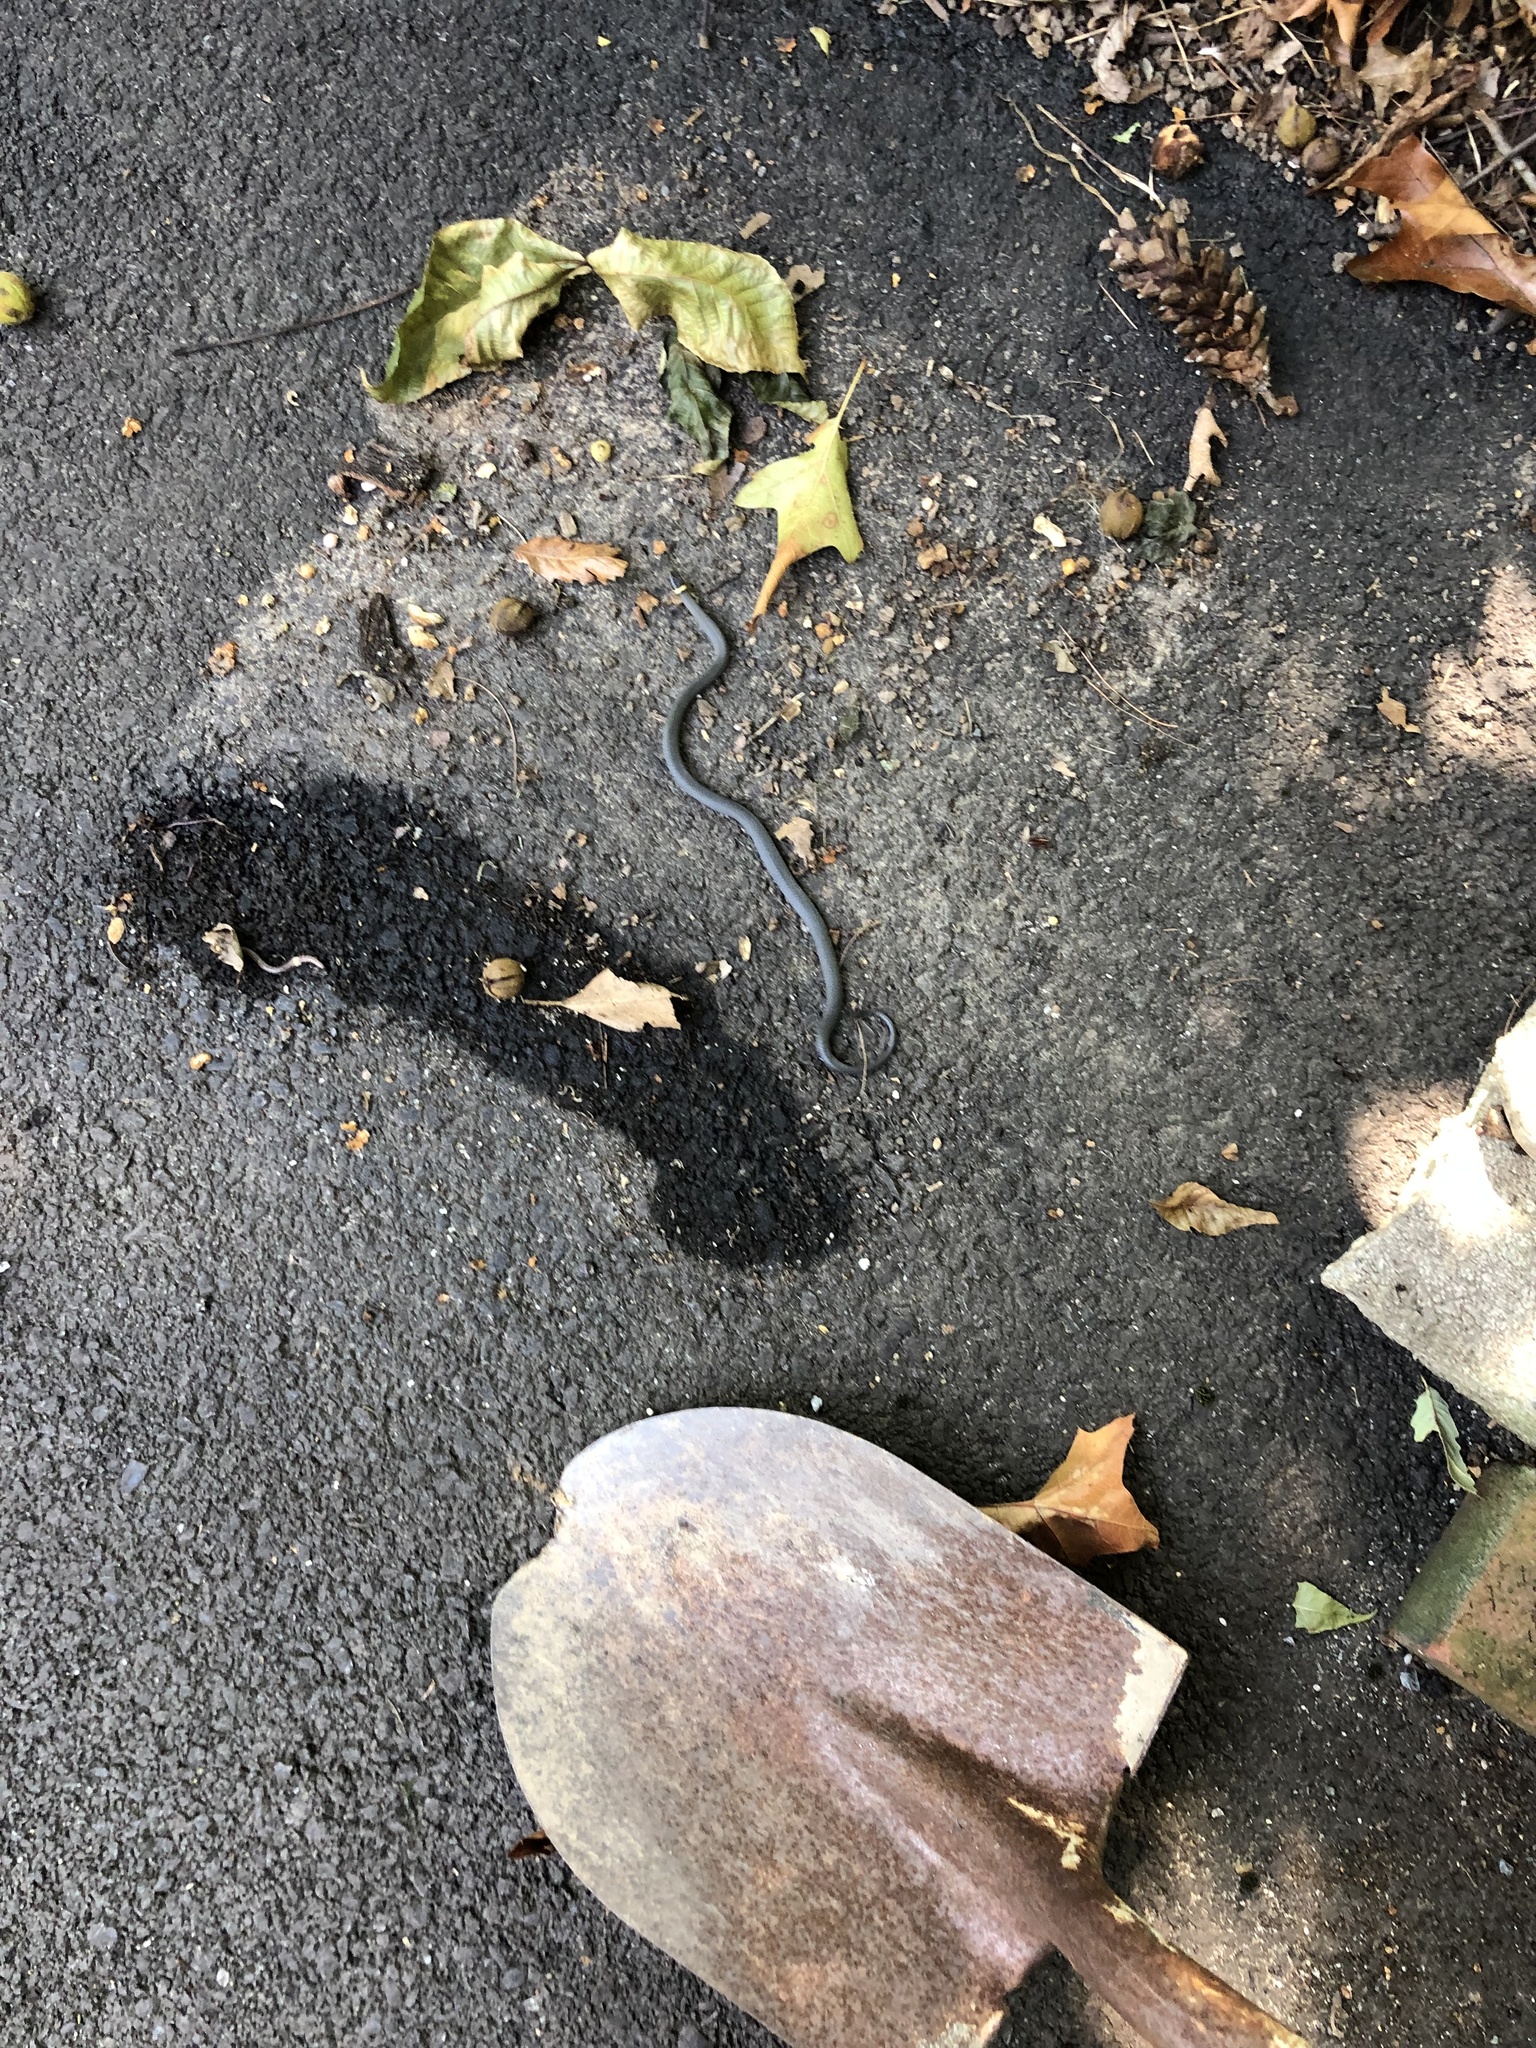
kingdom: Animalia
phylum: Chordata
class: Squamata
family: Colubridae
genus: Diadophis
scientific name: Diadophis punctatus
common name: Ringneck snake
